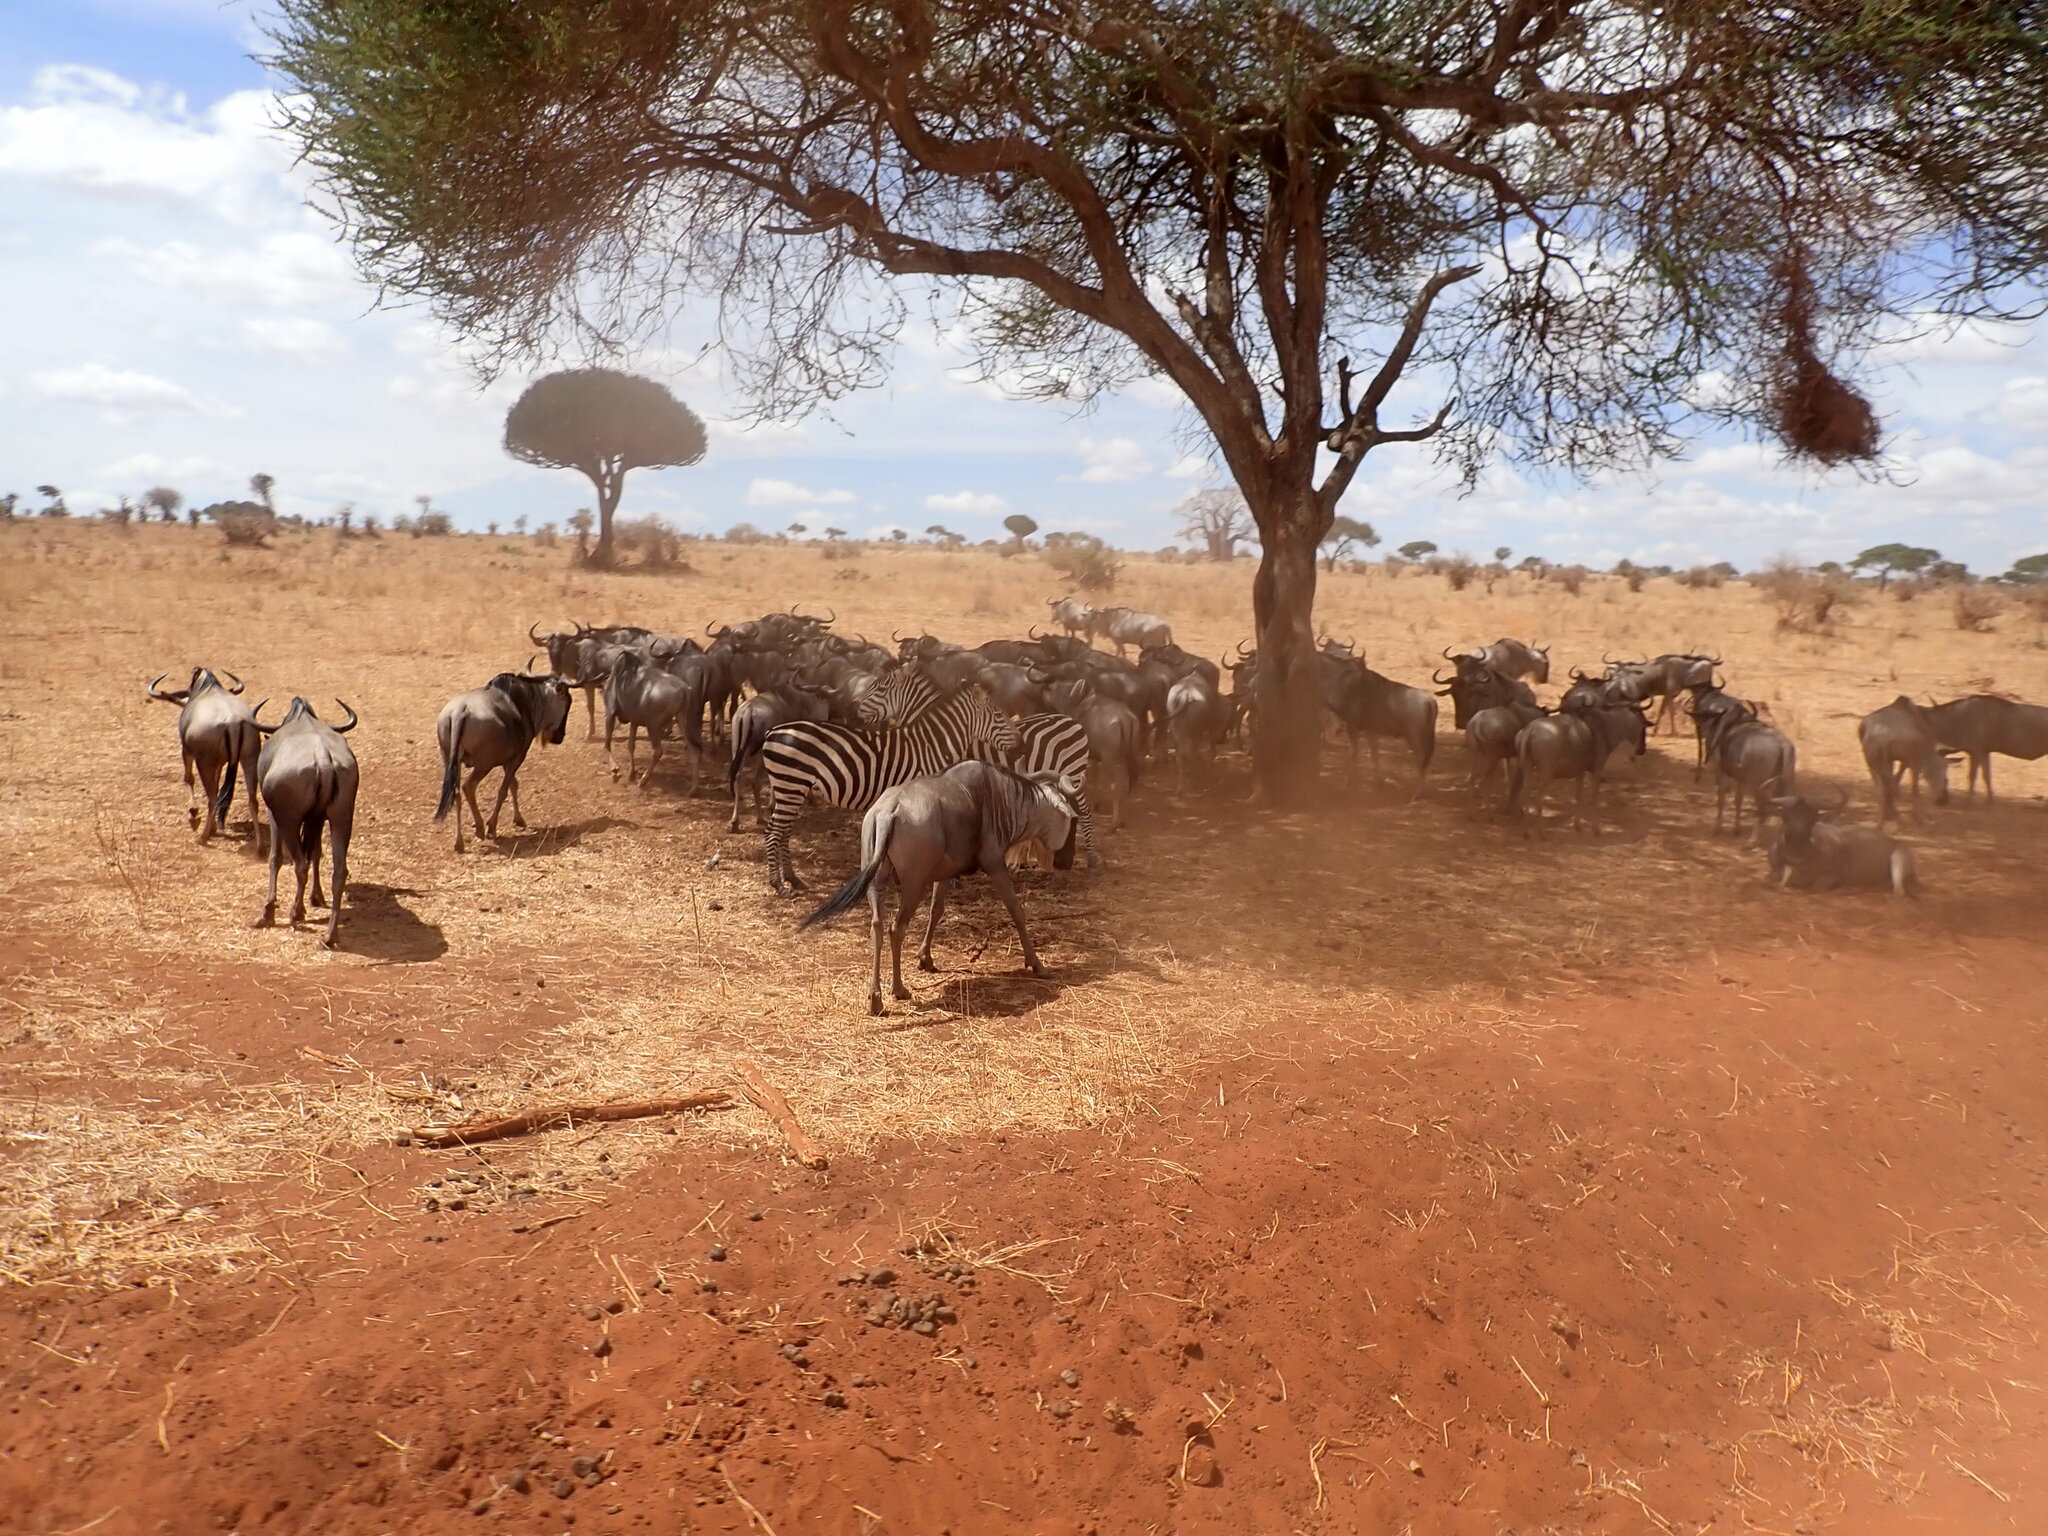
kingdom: Animalia
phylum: Chordata
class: Mammalia
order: Artiodactyla
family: Bovidae
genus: Connochaetes
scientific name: Connochaetes taurinus
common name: Blue wildebeest
